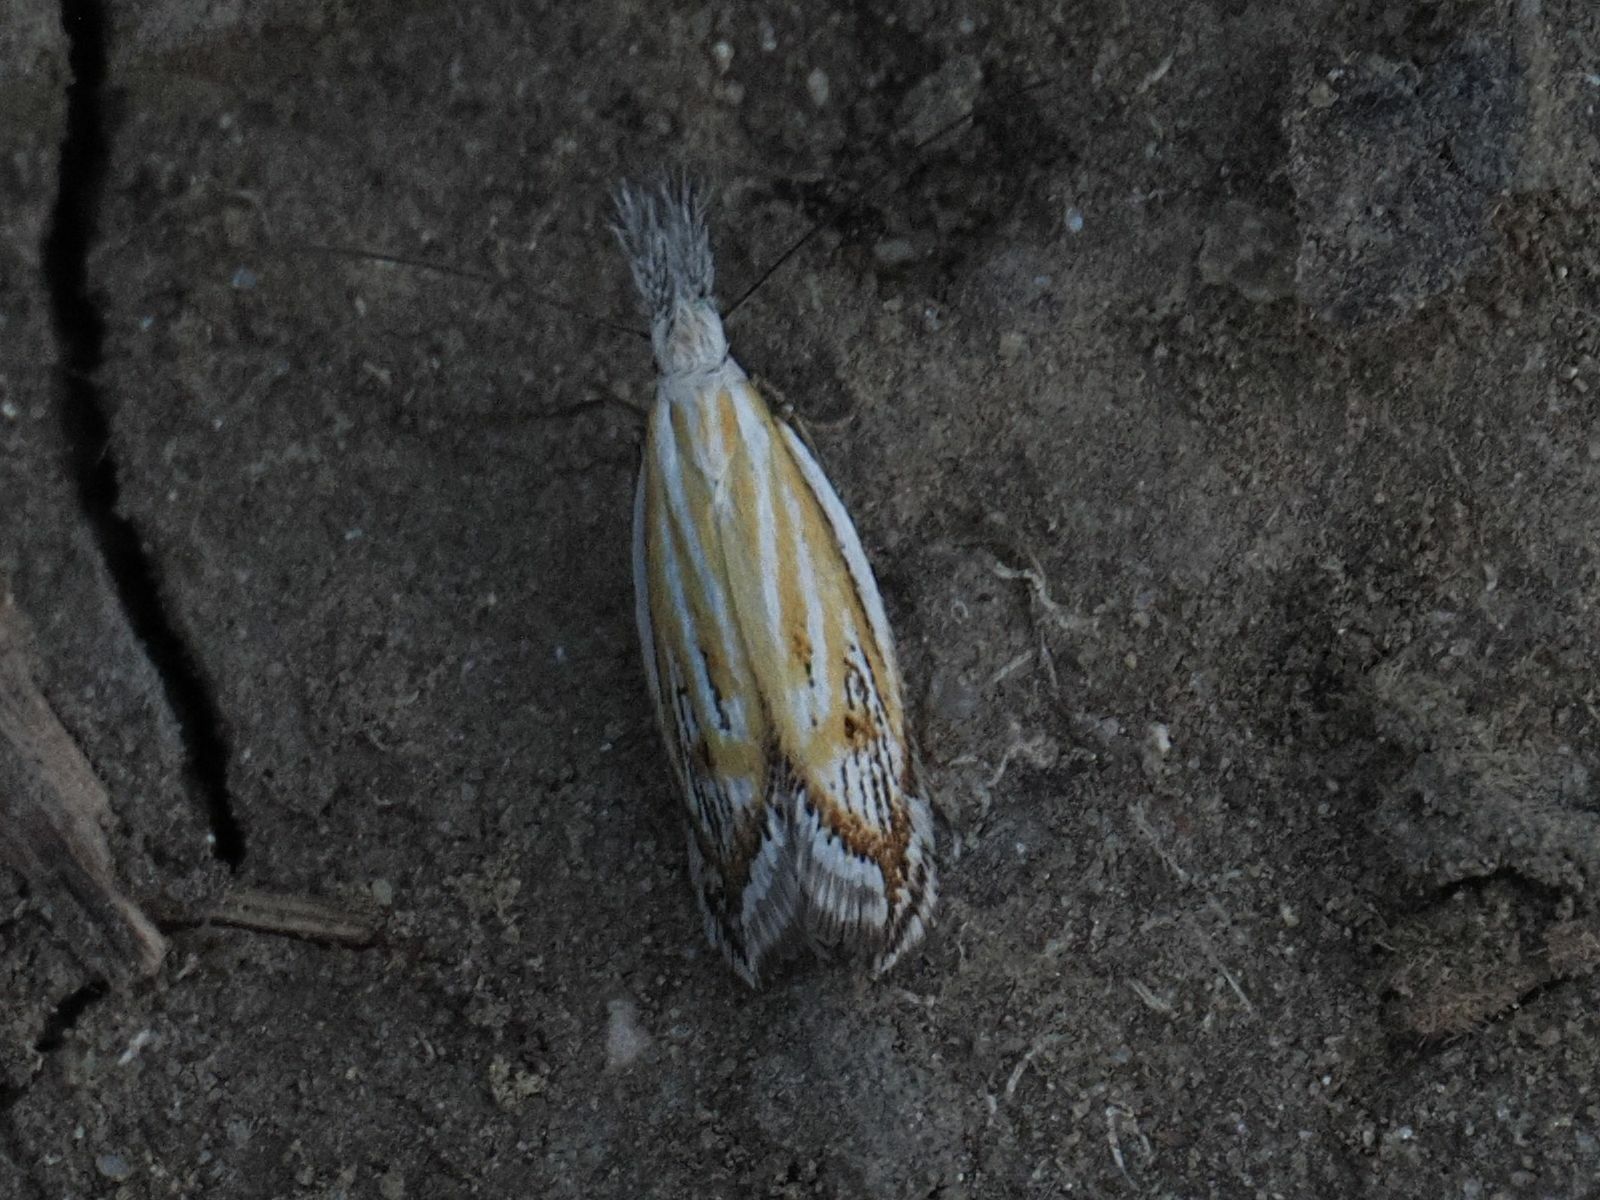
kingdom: Animalia
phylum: Arthropoda
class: Insecta
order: Lepidoptera
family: Oecophoridae
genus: Pleurota
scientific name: Pleurota huebneri
